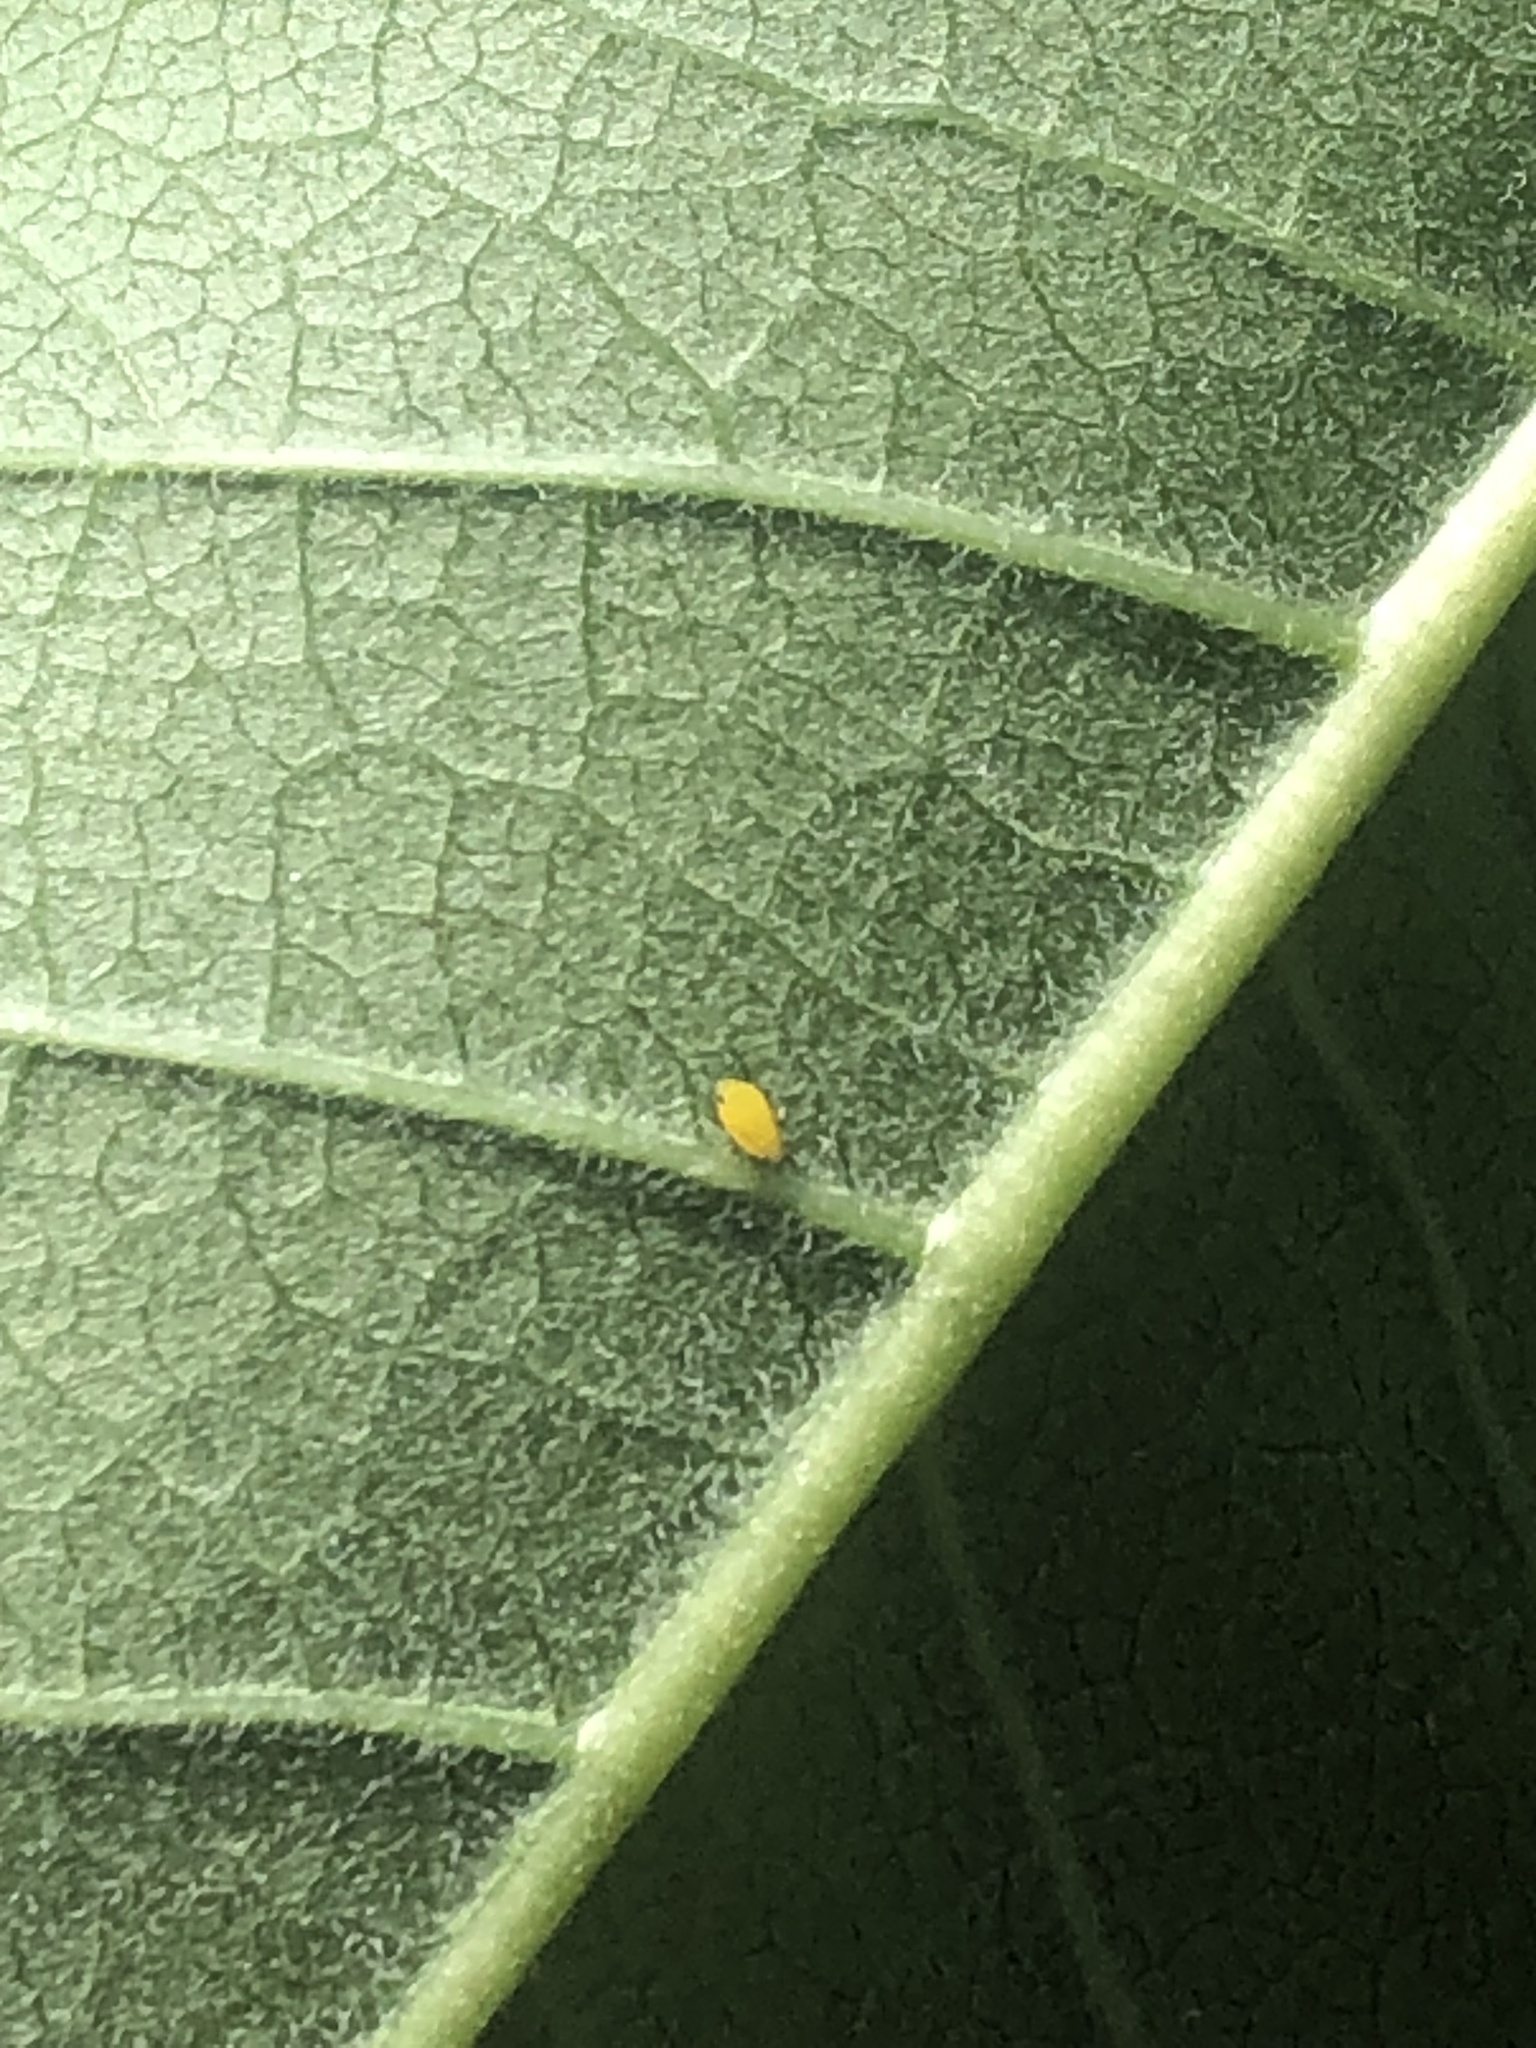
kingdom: Animalia
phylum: Arthropoda
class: Insecta
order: Hemiptera
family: Aphididae
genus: Aphis
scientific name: Aphis nerii
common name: Oleander aphid
